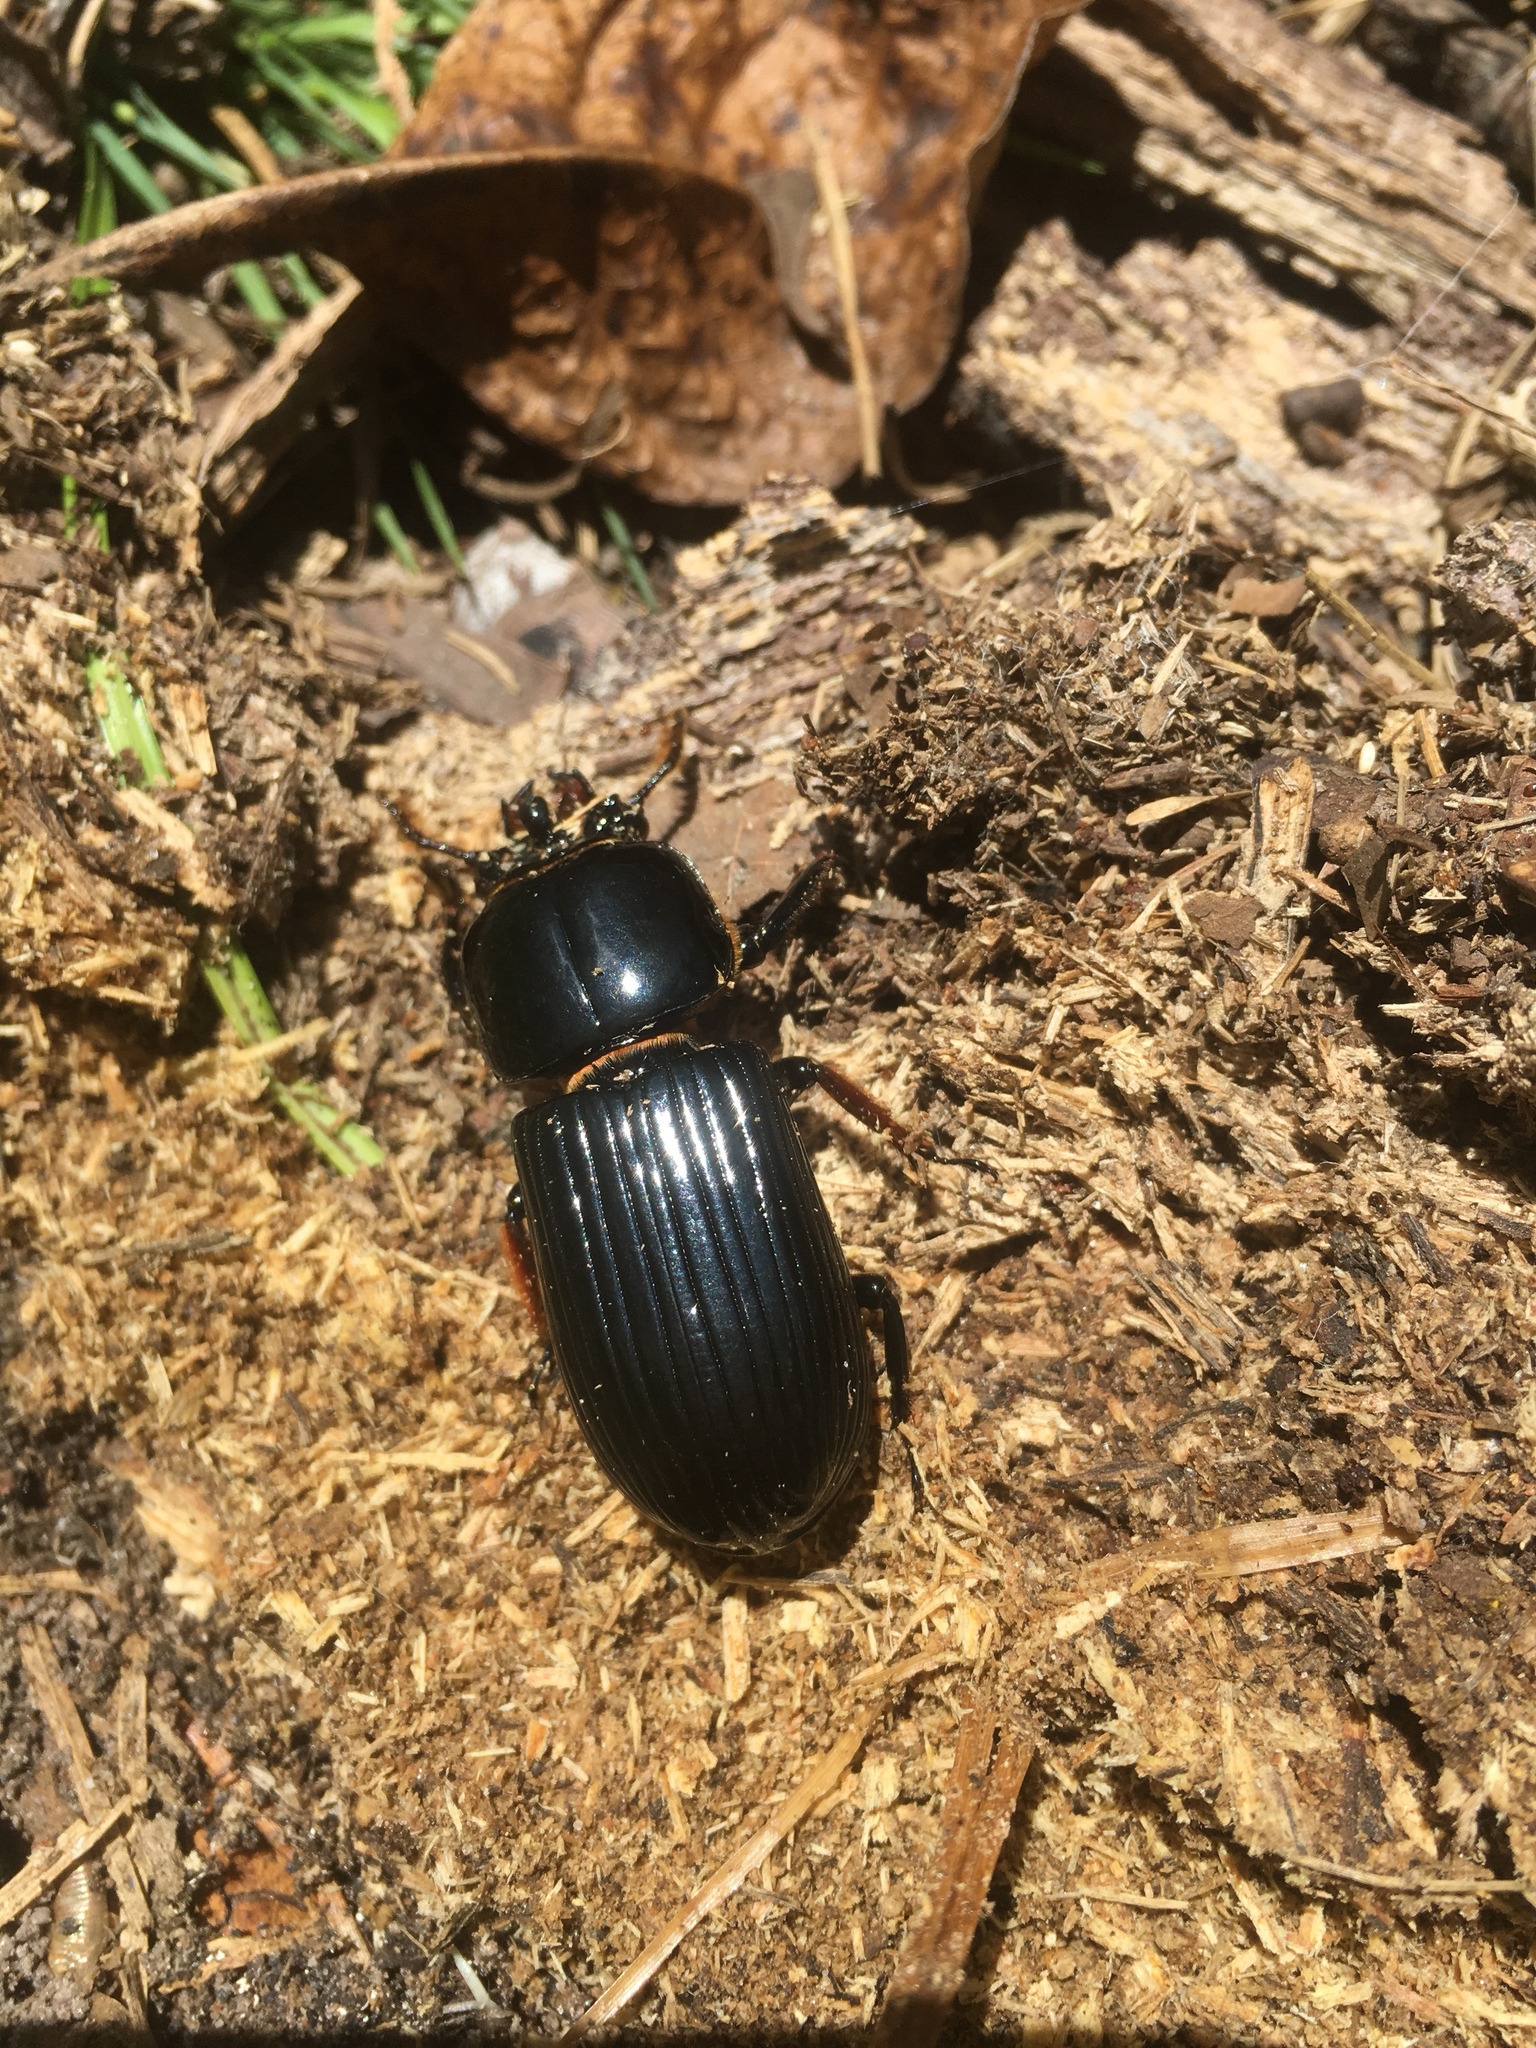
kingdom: Animalia
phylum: Arthropoda
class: Insecta
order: Coleoptera
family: Passalidae
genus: Odontotaenius
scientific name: Odontotaenius disjunctus
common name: Patent leather beetle
